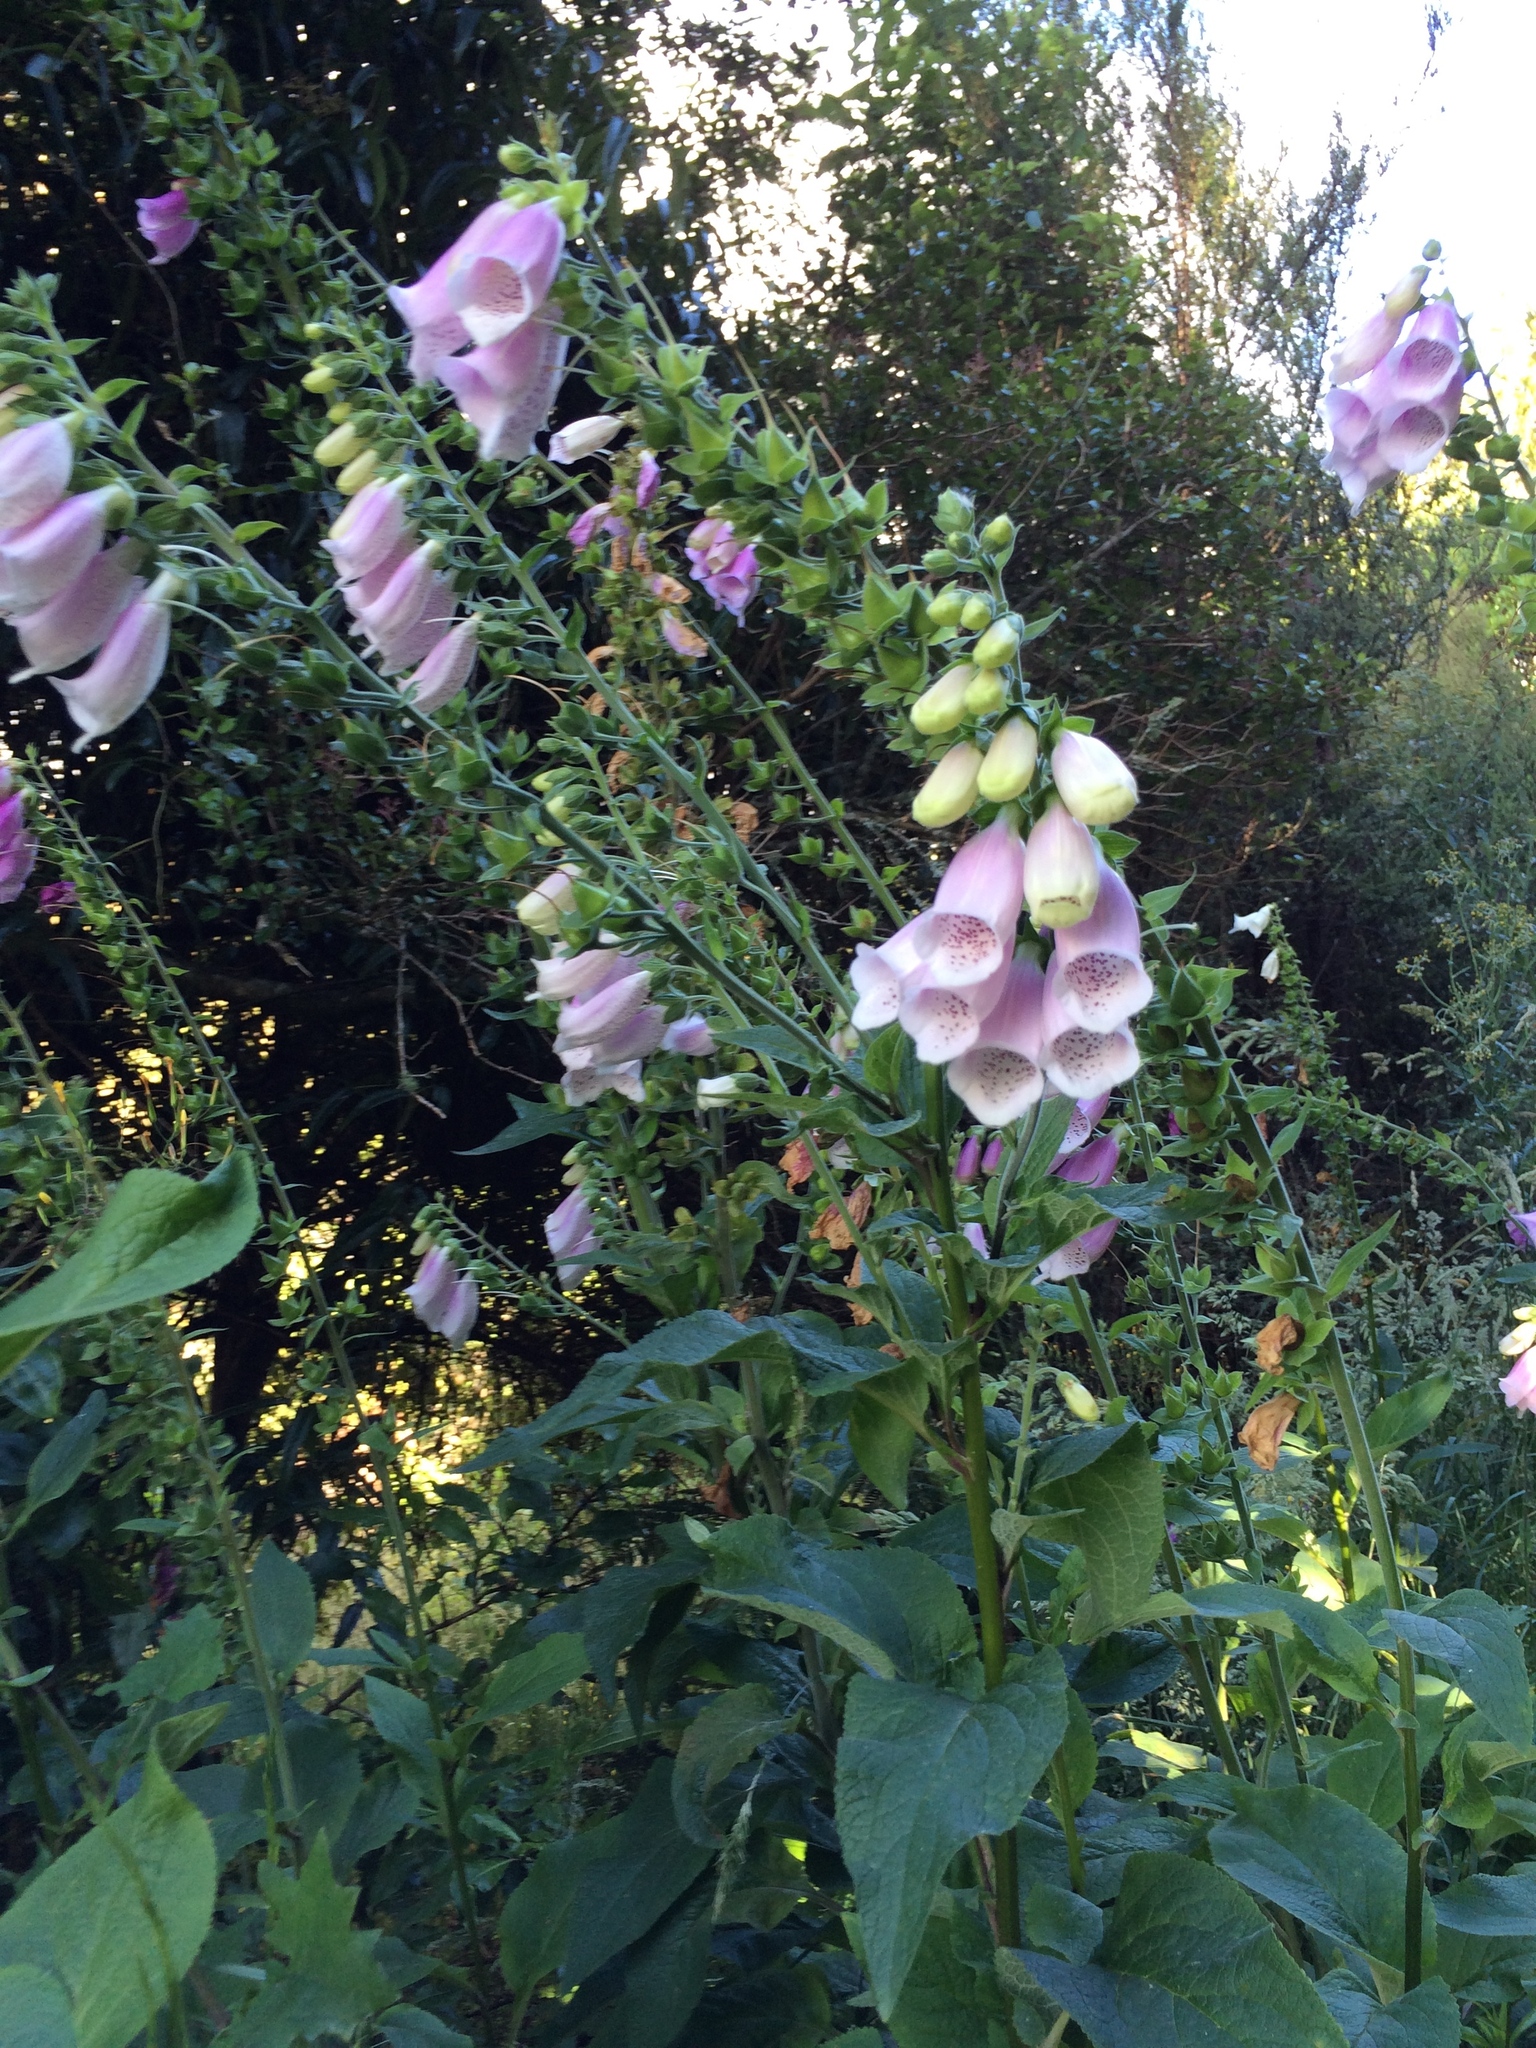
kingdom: Plantae
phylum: Tracheophyta
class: Magnoliopsida
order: Lamiales
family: Plantaginaceae
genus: Digitalis
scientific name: Digitalis purpurea
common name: Foxglove
